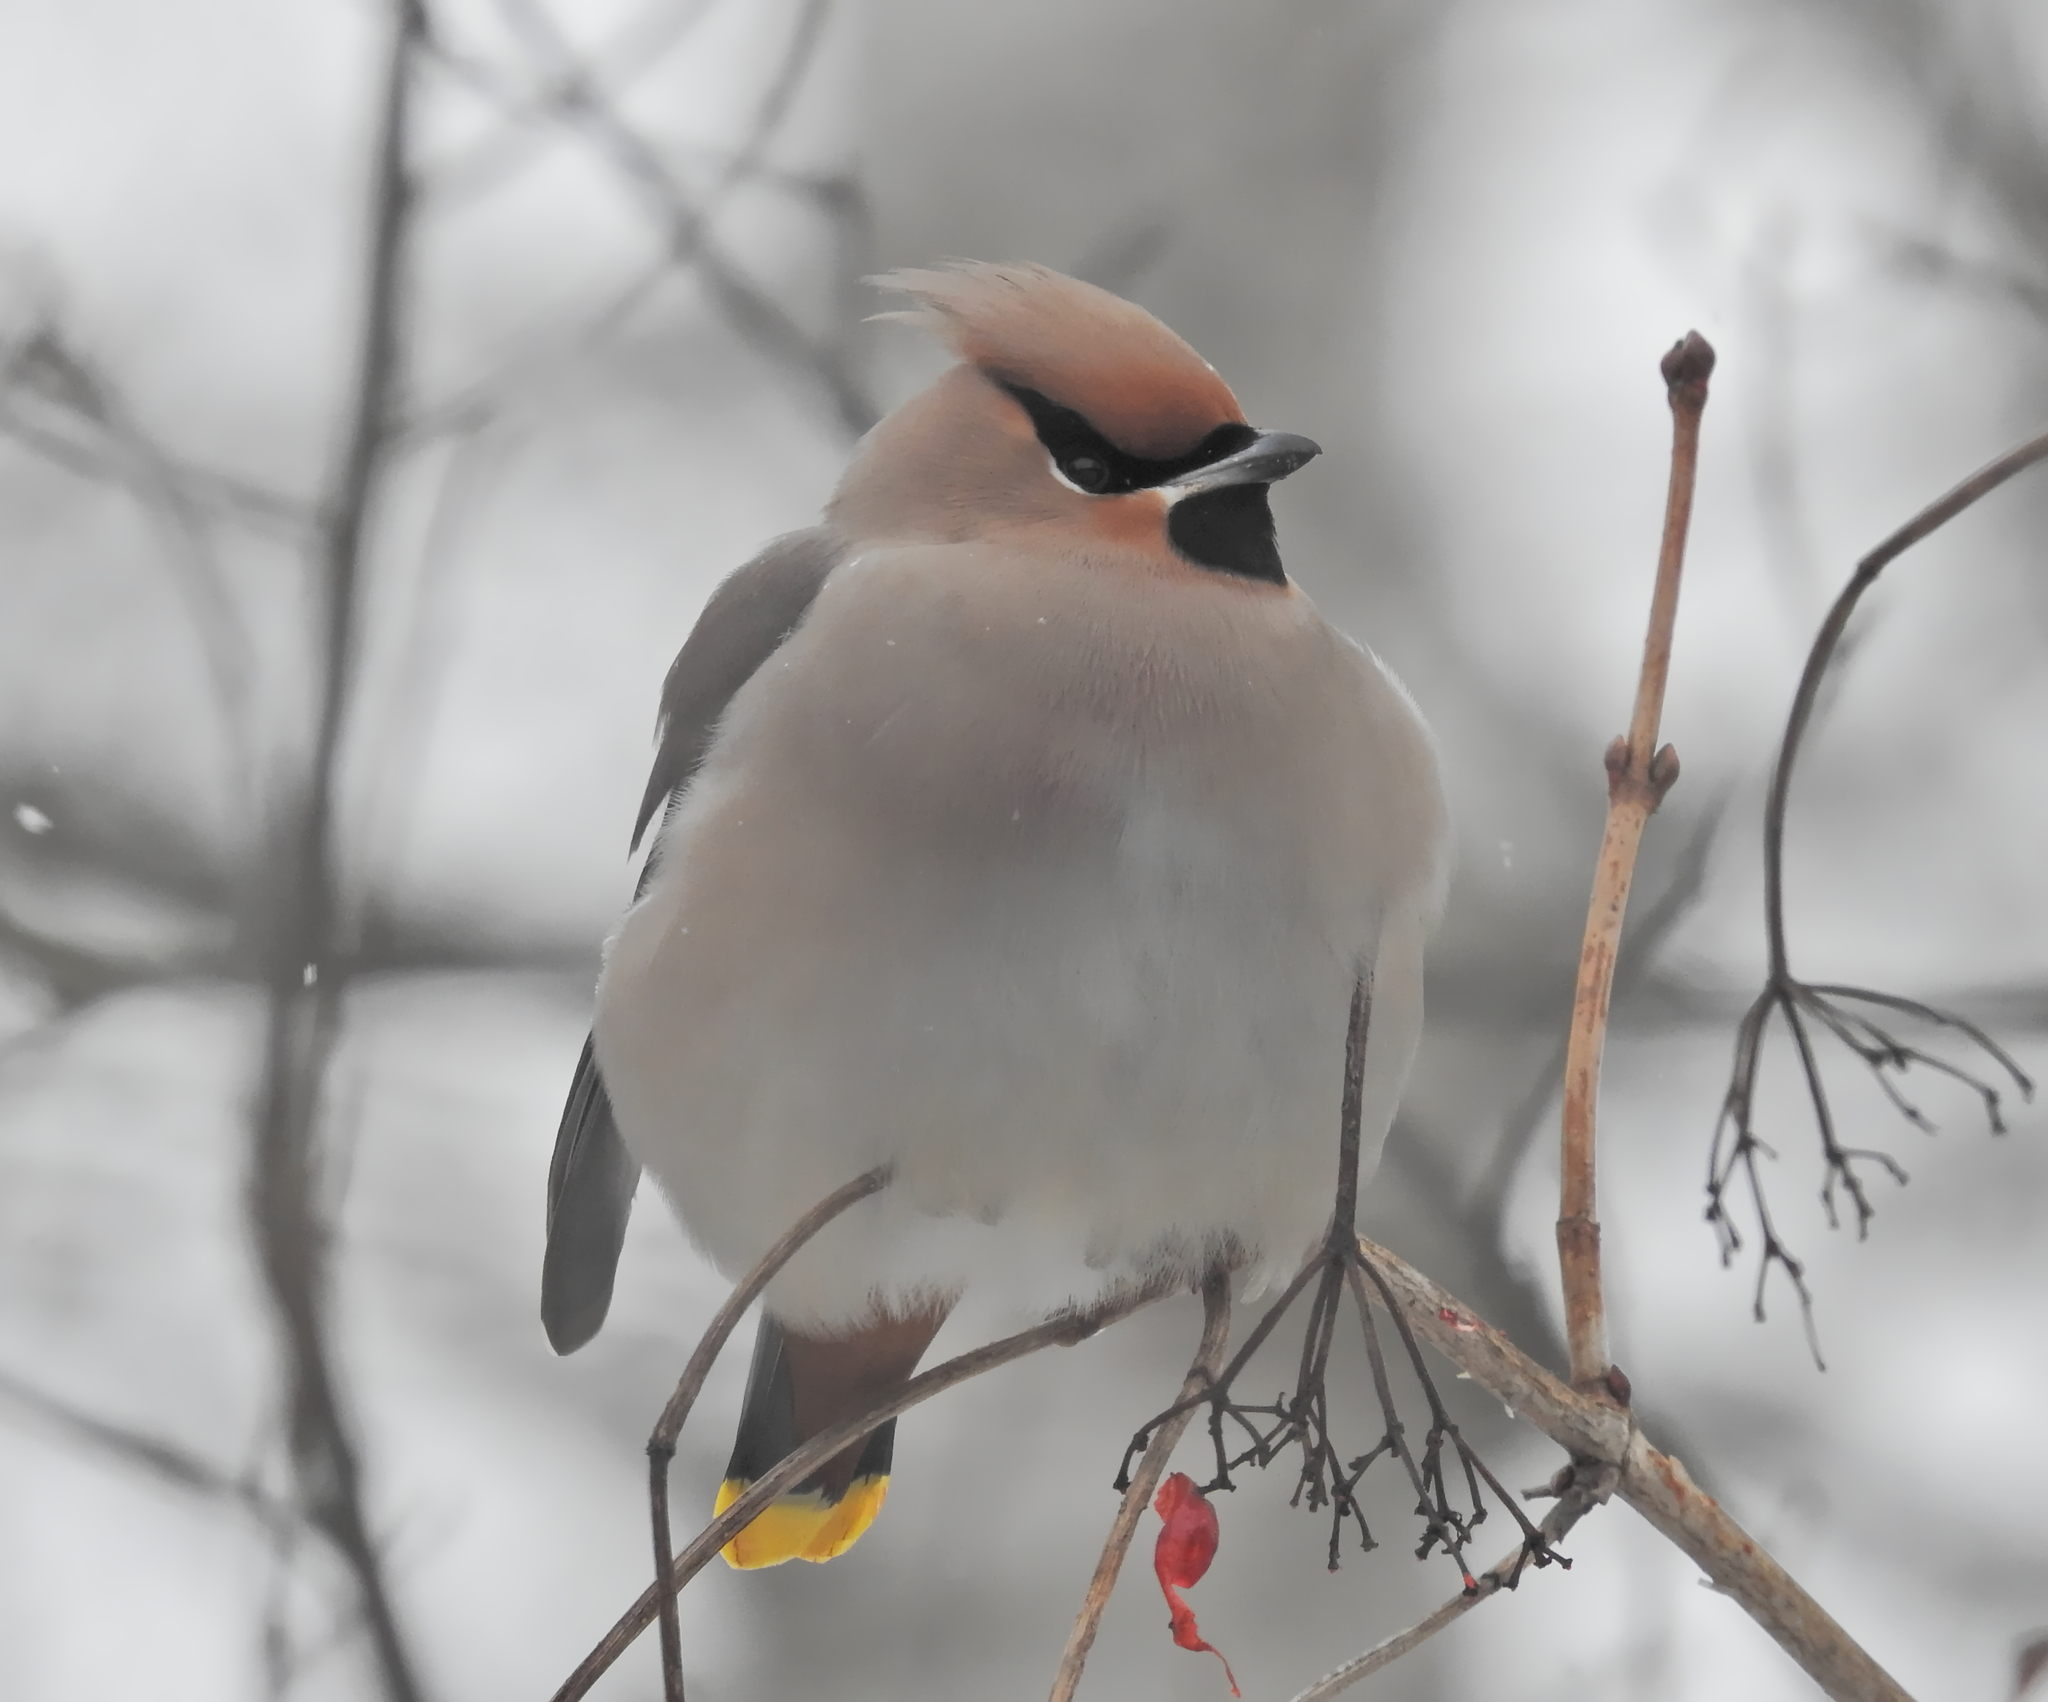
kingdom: Animalia
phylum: Chordata
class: Aves
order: Passeriformes
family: Bombycillidae
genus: Bombycilla
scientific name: Bombycilla garrulus
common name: Bohemian waxwing
